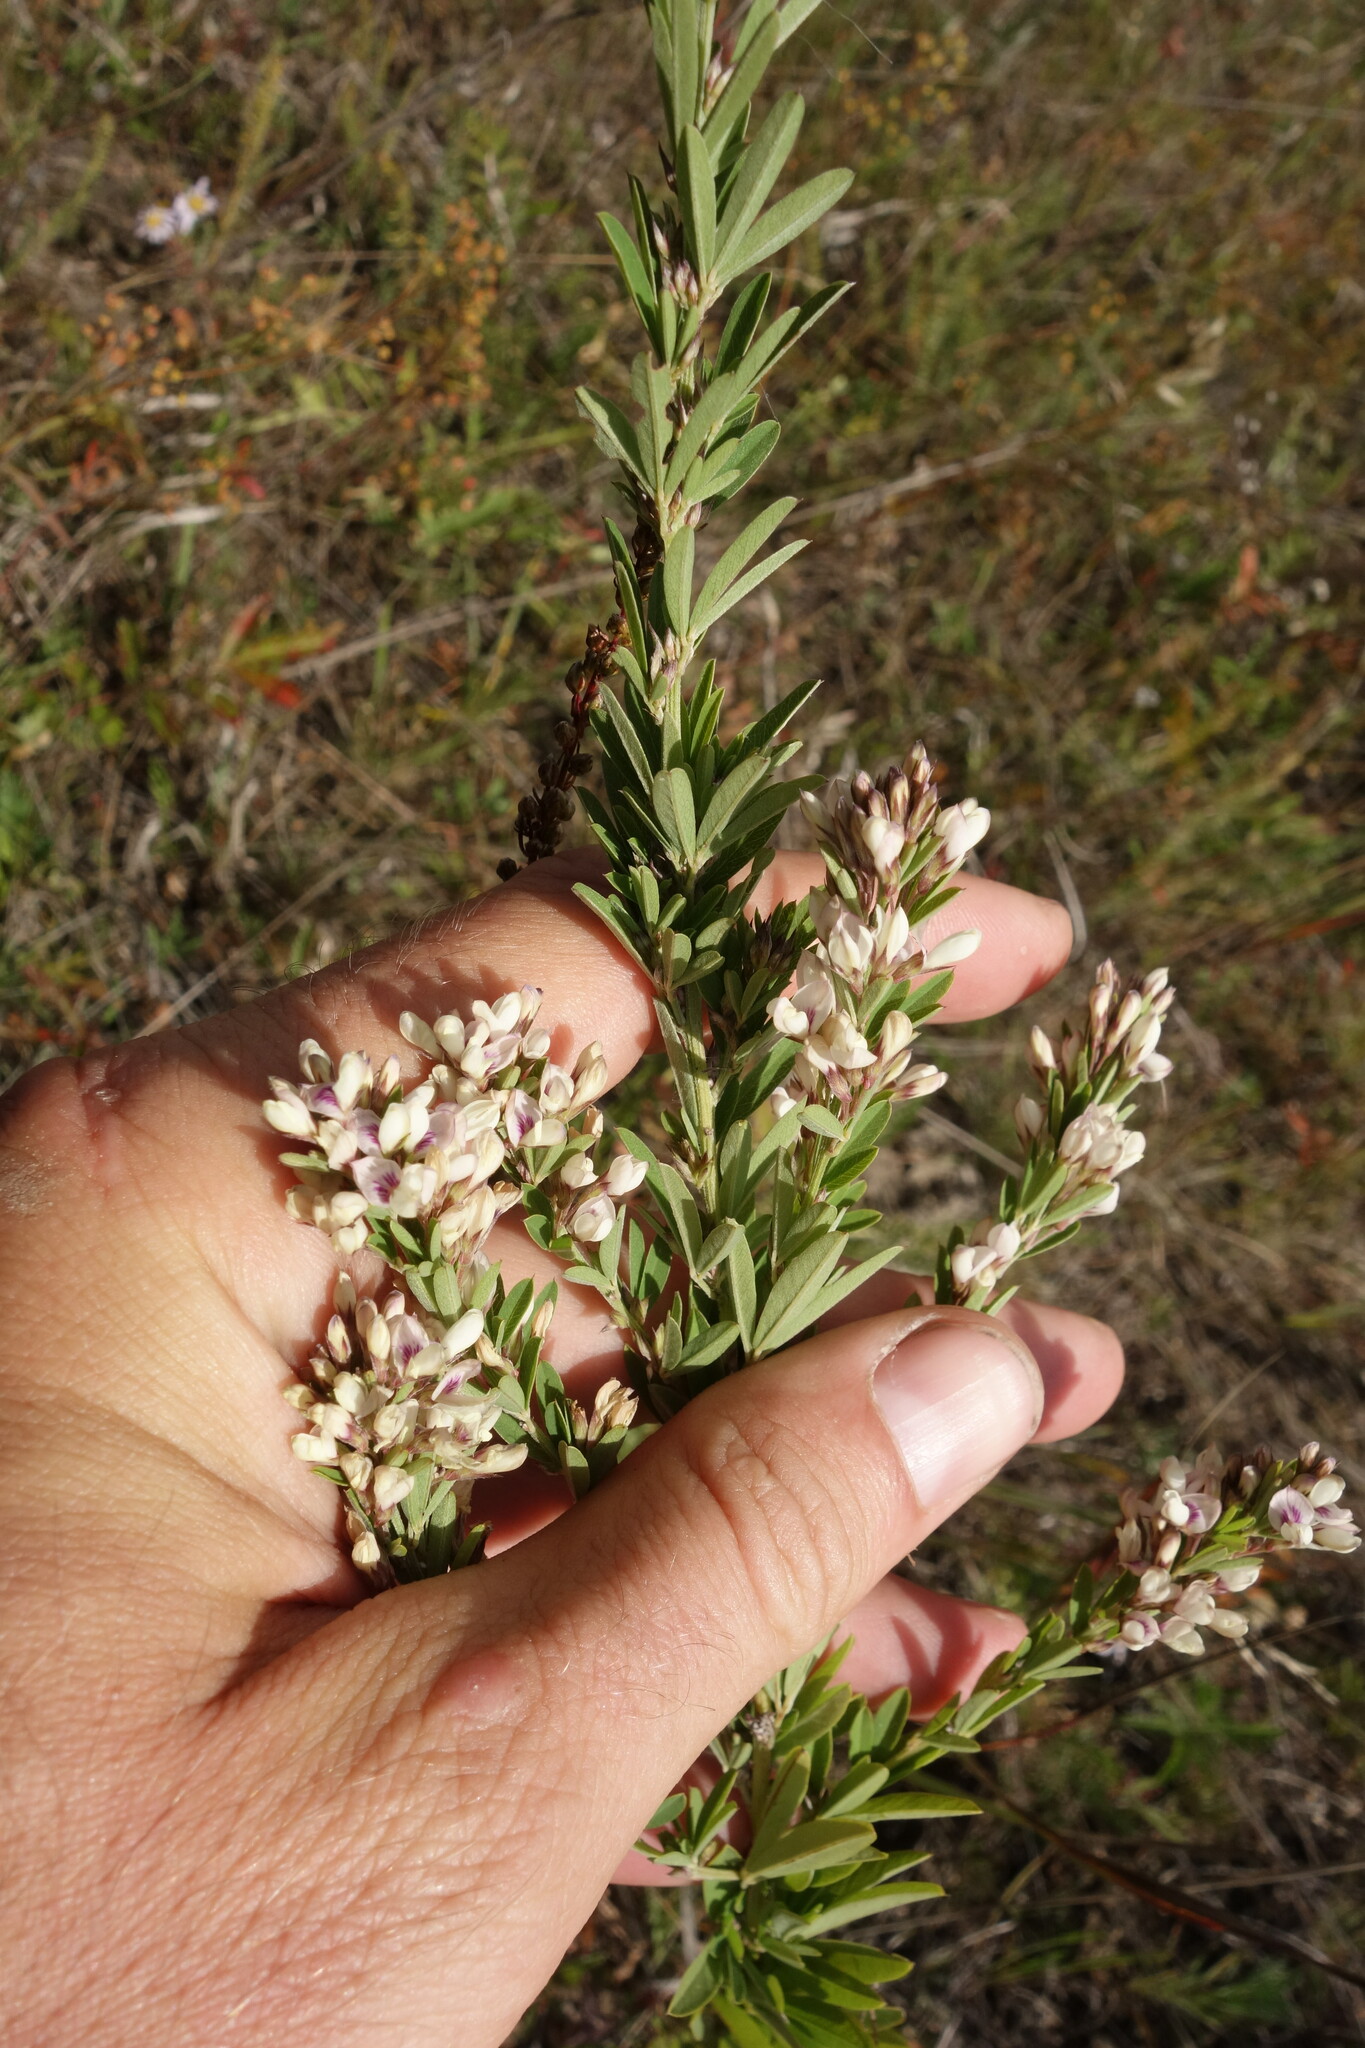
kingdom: Plantae
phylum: Tracheophyta
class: Magnoliopsida
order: Fabales
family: Fabaceae
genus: Lespedeza
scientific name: Lespedeza juncea
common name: Siberian lespedeza
